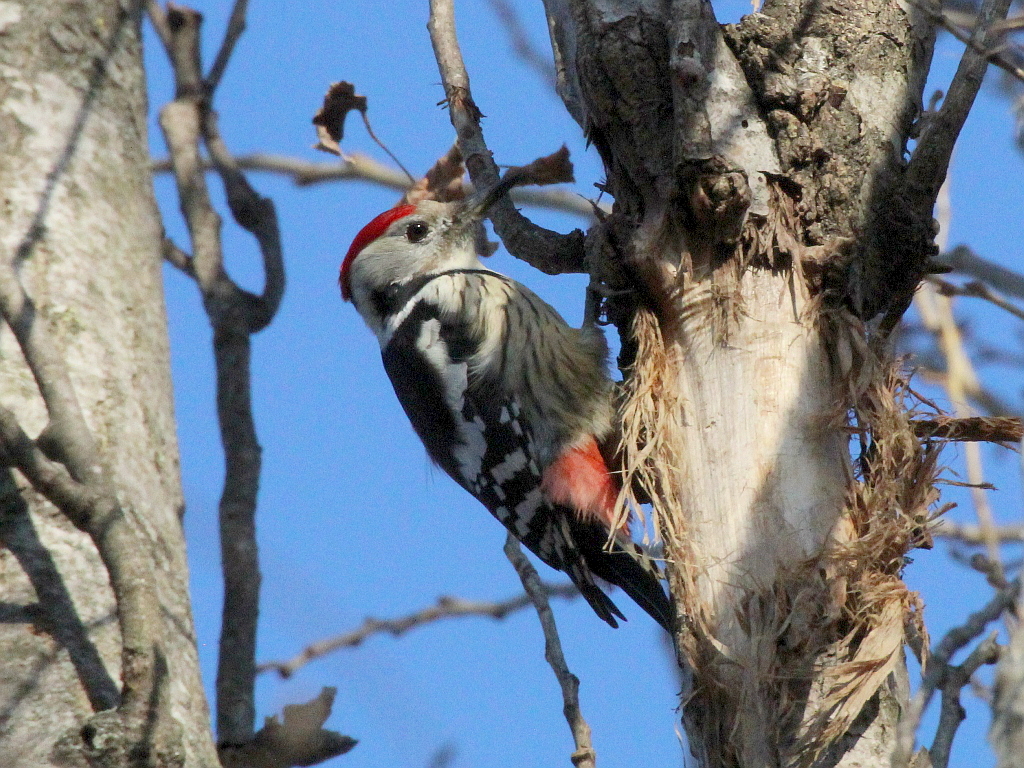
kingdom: Animalia
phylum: Chordata
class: Aves
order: Piciformes
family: Picidae
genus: Dendrocoptes
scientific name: Dendrocoptes medius
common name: Middle spotted woodpecker
